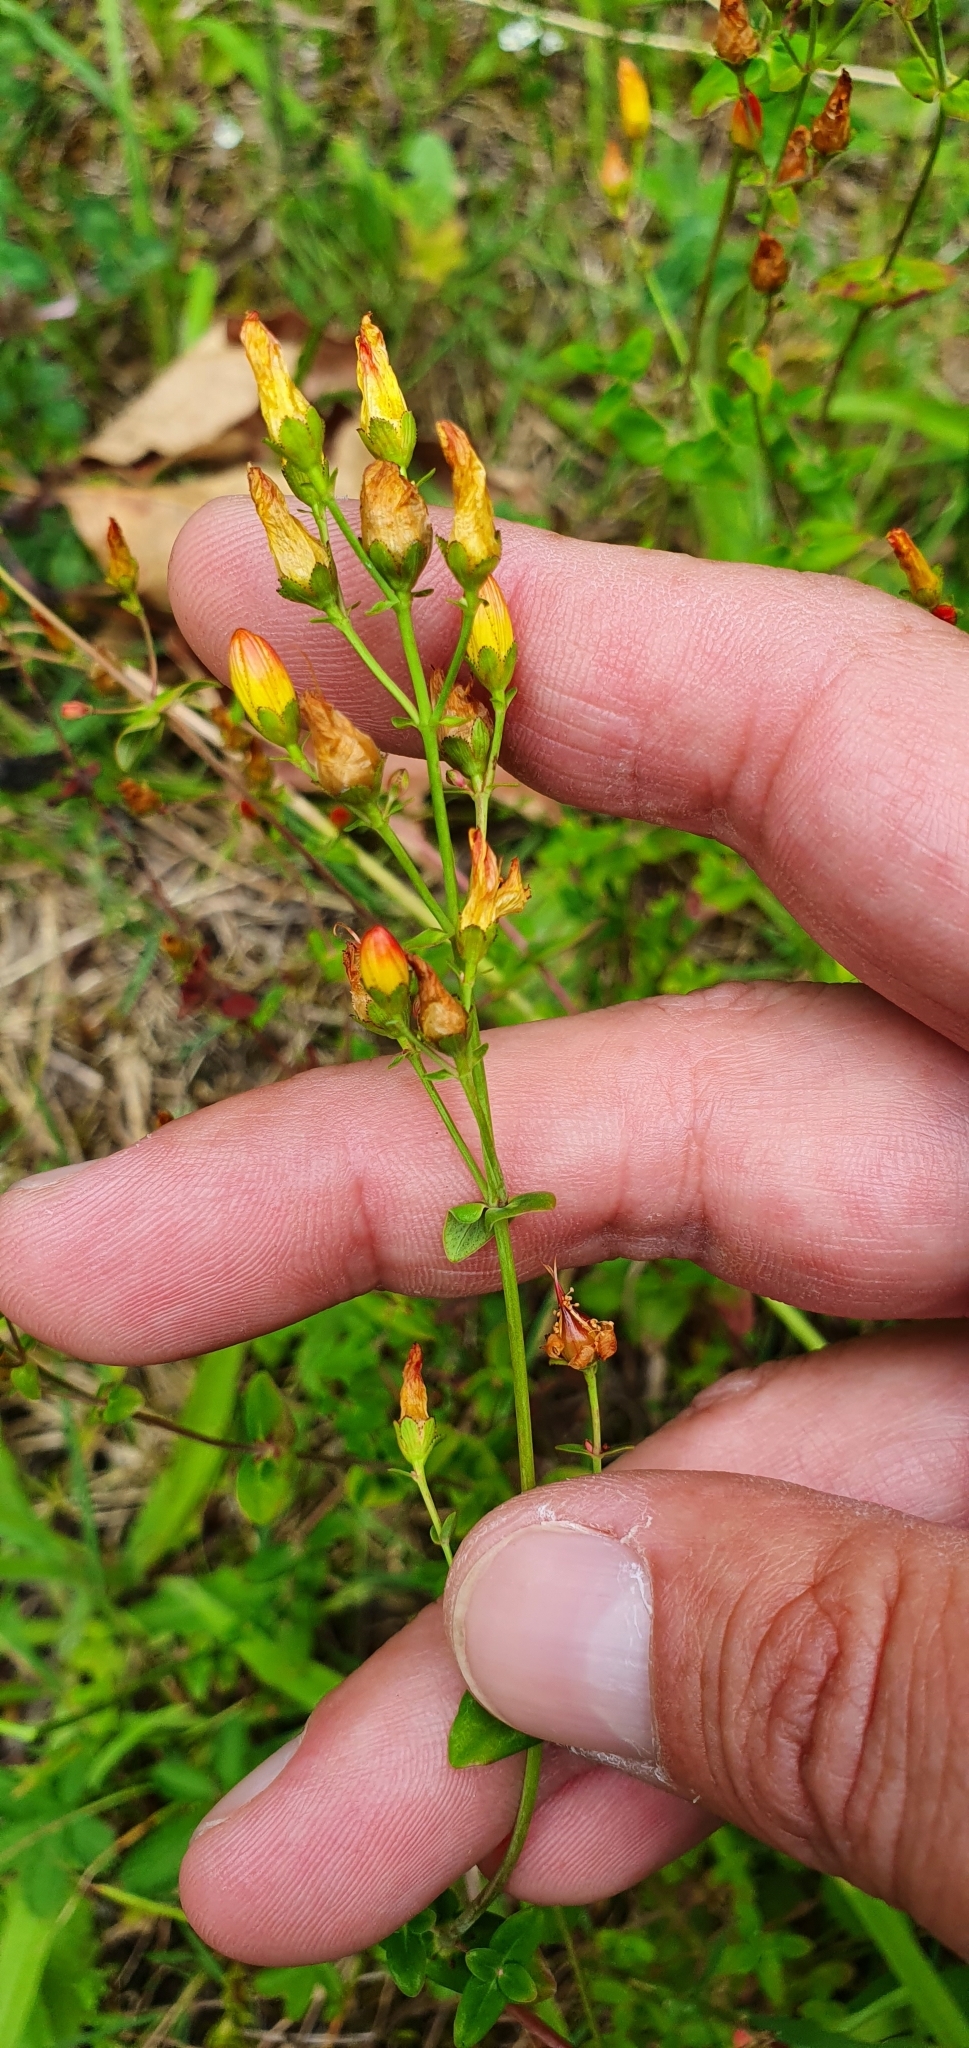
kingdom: Plantae
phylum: Tracheophyta
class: Magnoliopsida
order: Malpighiales
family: Hypericaceae
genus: Hypericum
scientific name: Hypericum pulchrum
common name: Slender st. john's-wort
